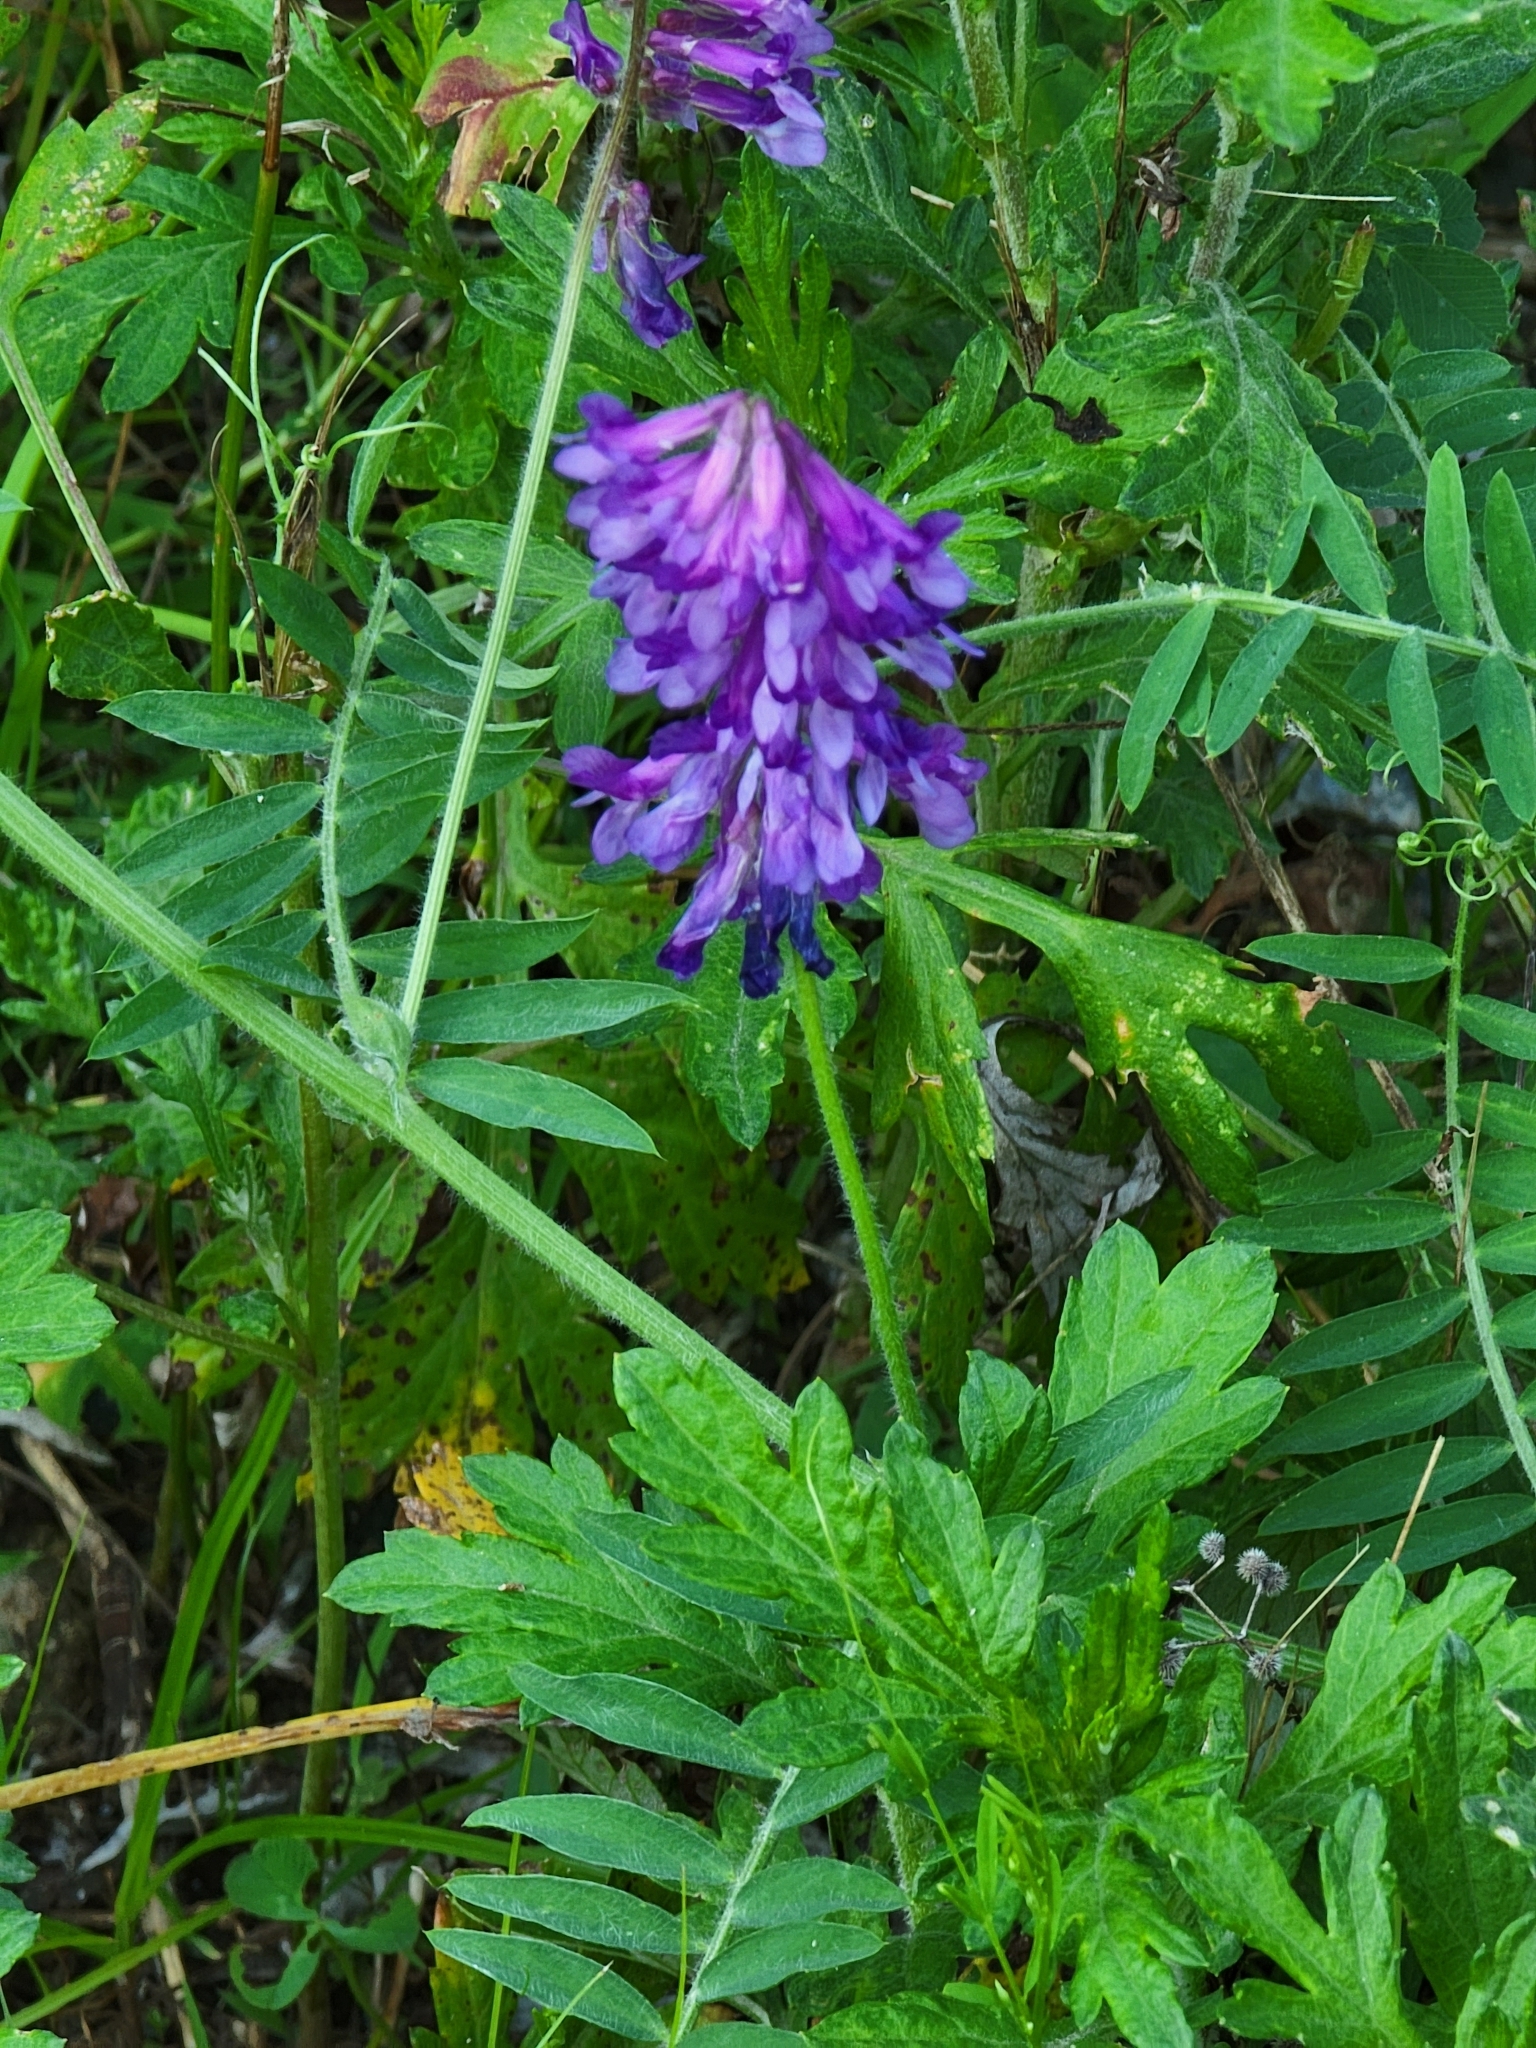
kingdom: Plantae
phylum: Tracheophyta
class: Magnoliopsida
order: Fabales
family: Fabaceae
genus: Vicia
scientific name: Vicia villosa
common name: Fodder vetch
